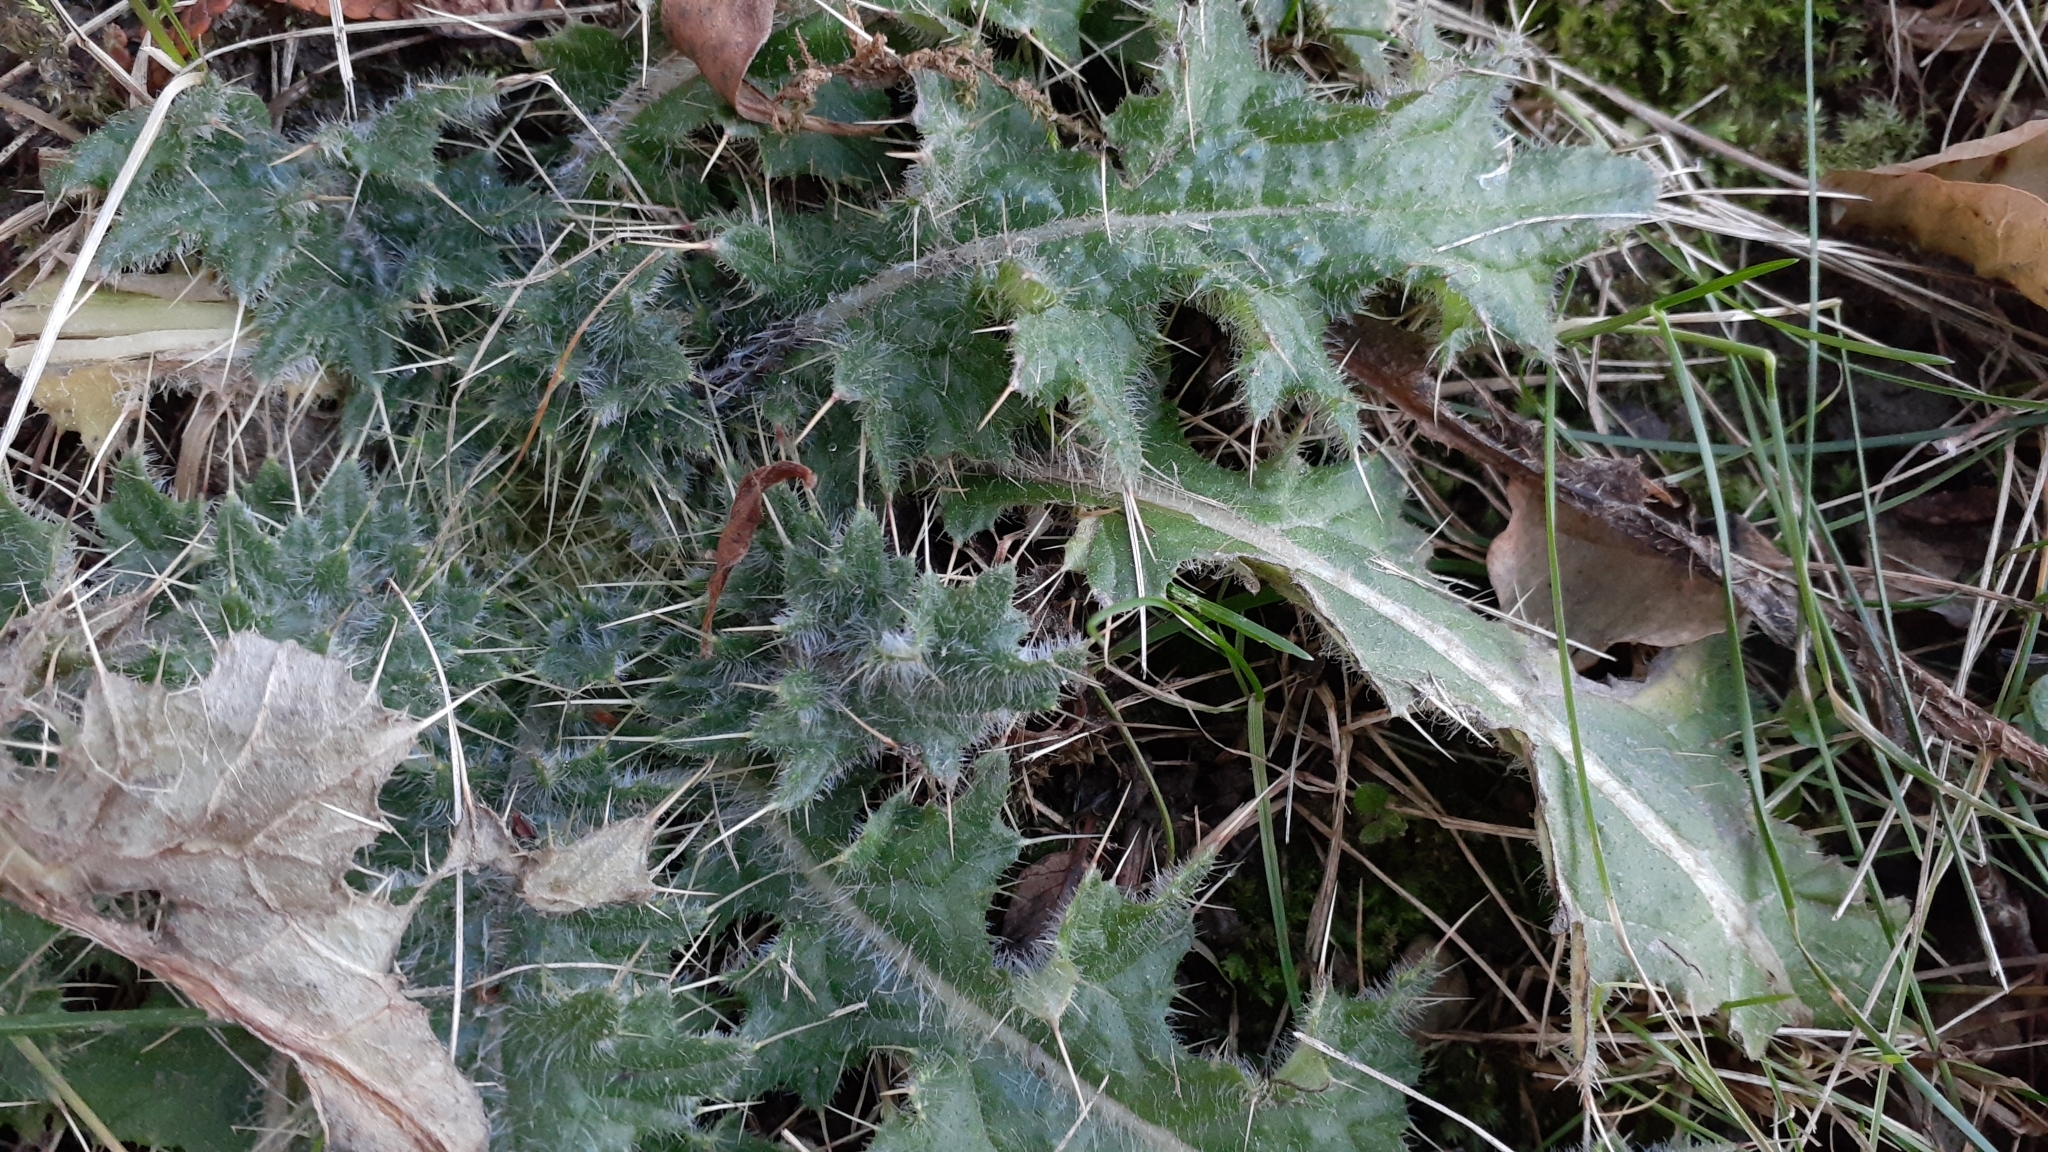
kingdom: Plantae
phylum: Tracheophyta
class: Magnoliopsida
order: Asterales
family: Asteraceae
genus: Cirsium
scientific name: Cirsium vulgare
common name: Bull thistle
